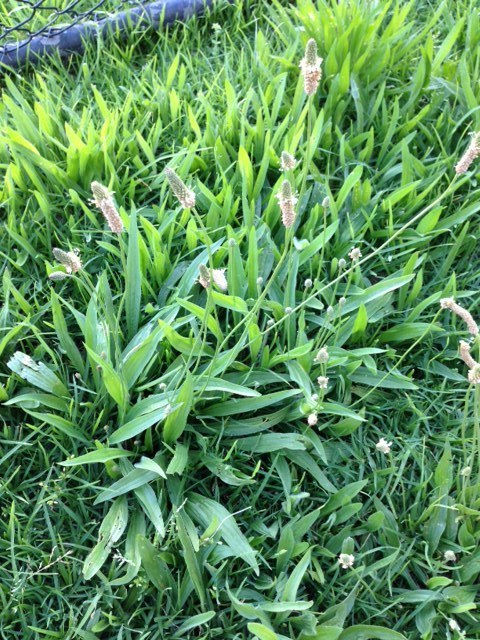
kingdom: Plantae
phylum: Tracheophyta
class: Magnoliopsida
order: Lamiales
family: Plantaginaceae
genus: Plantago
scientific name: Plantago lanceolata
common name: Ribwort plantain
